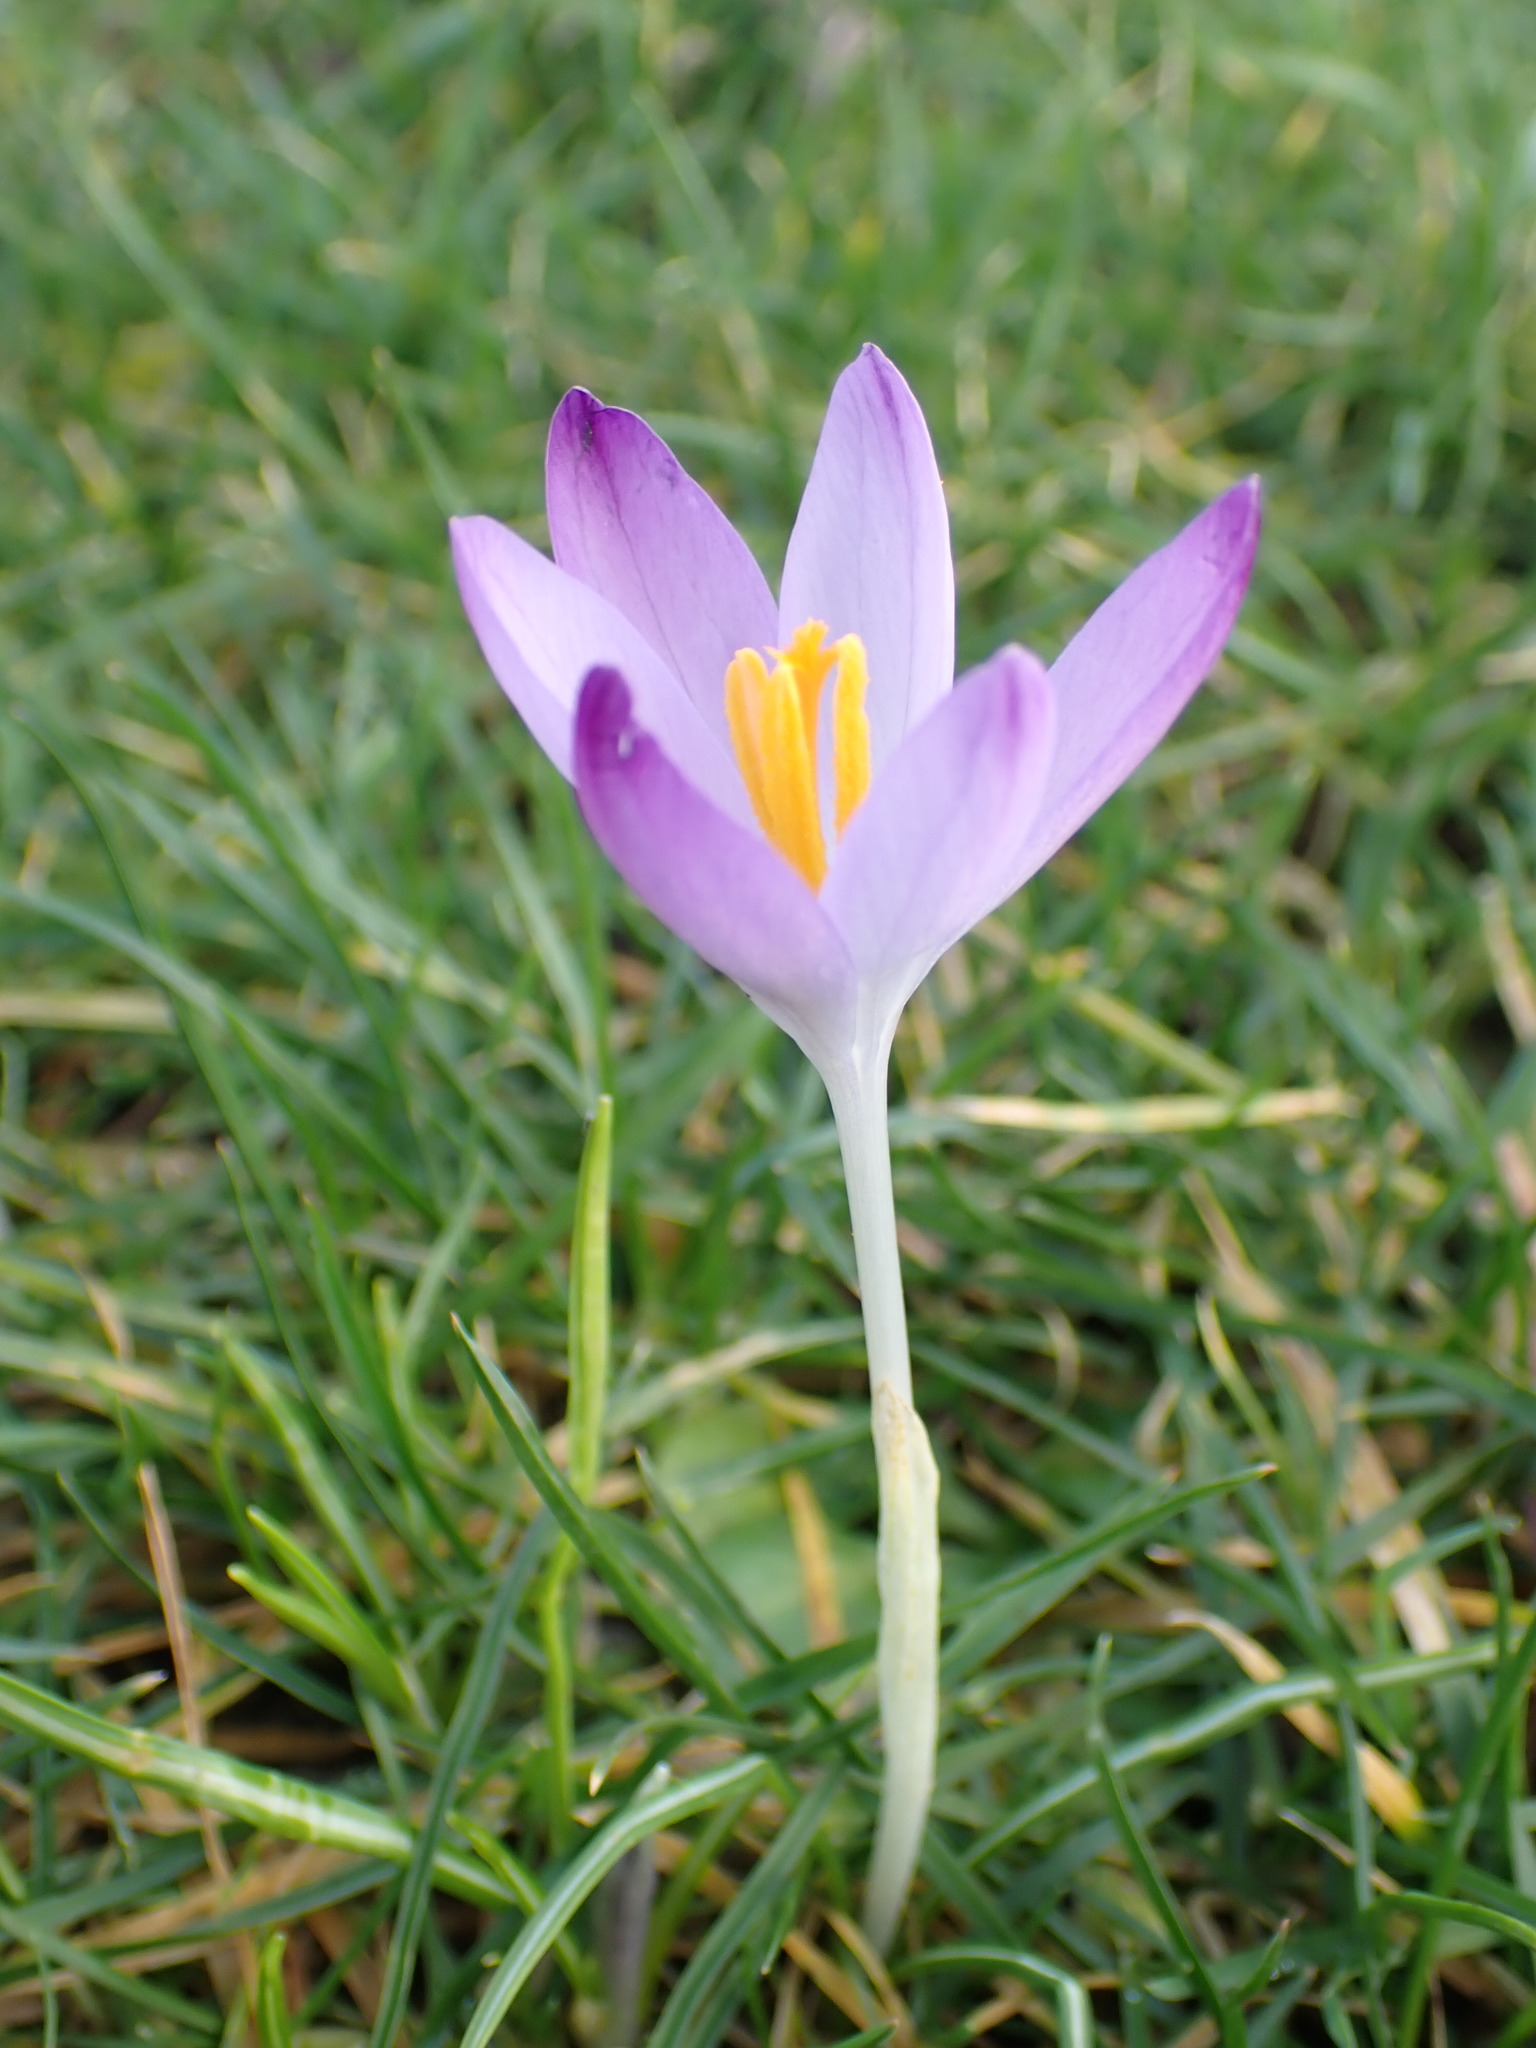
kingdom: Plantae
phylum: Tracheophyta
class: Liliopsida
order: Asparagales
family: Iridaceae
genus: Crocus
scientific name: Crocus tommasinianus
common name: Early crocus
